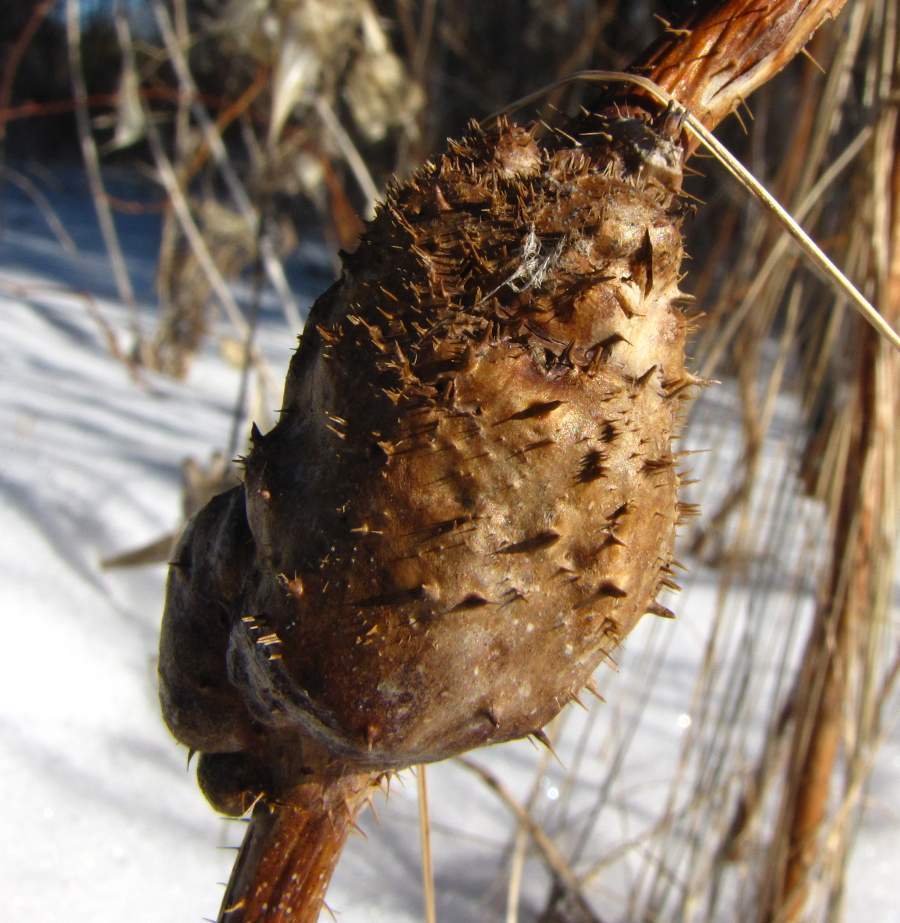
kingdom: Animalia
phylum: Arthropoda
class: Insecta
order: Hymenoptera
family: Cynipidae
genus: Diastrophus
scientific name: Diastrophus turgidus
